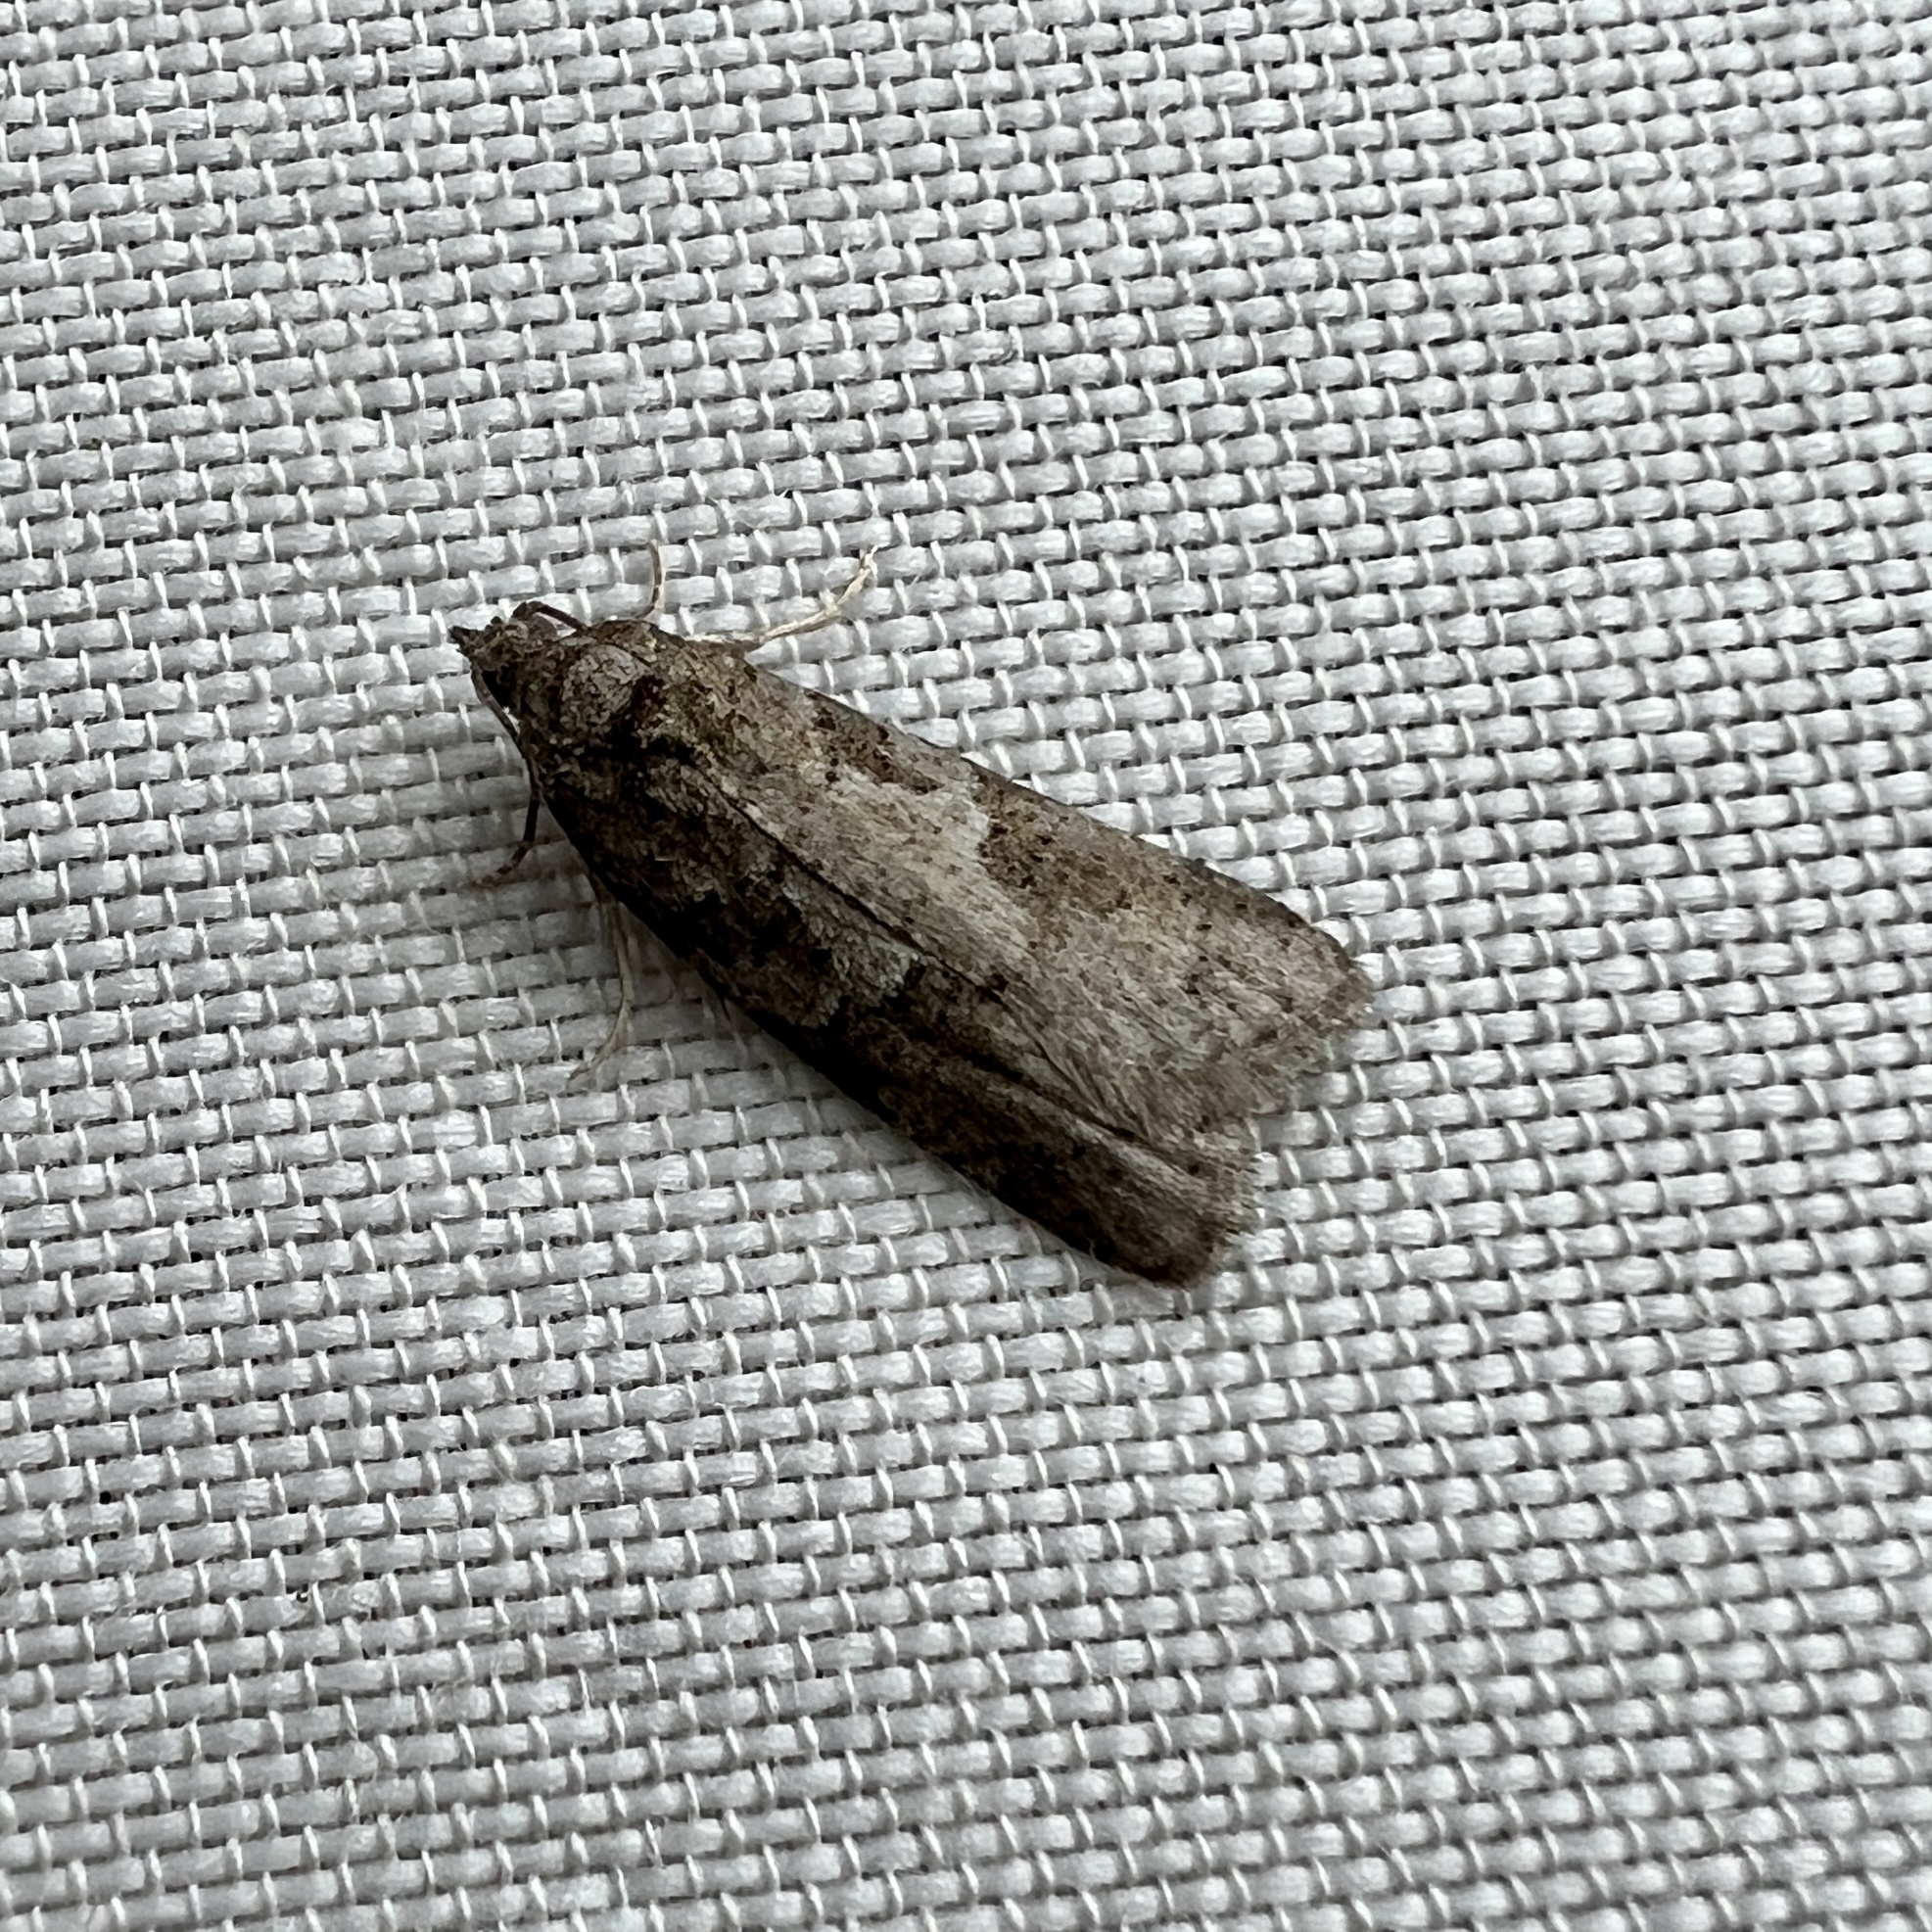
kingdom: Animalia
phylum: Arthropoda
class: Insecta
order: Lepidoptera
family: Tortricidae
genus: Cnephasia
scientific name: Cnephasia stephensiana
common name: Grey tortrix
